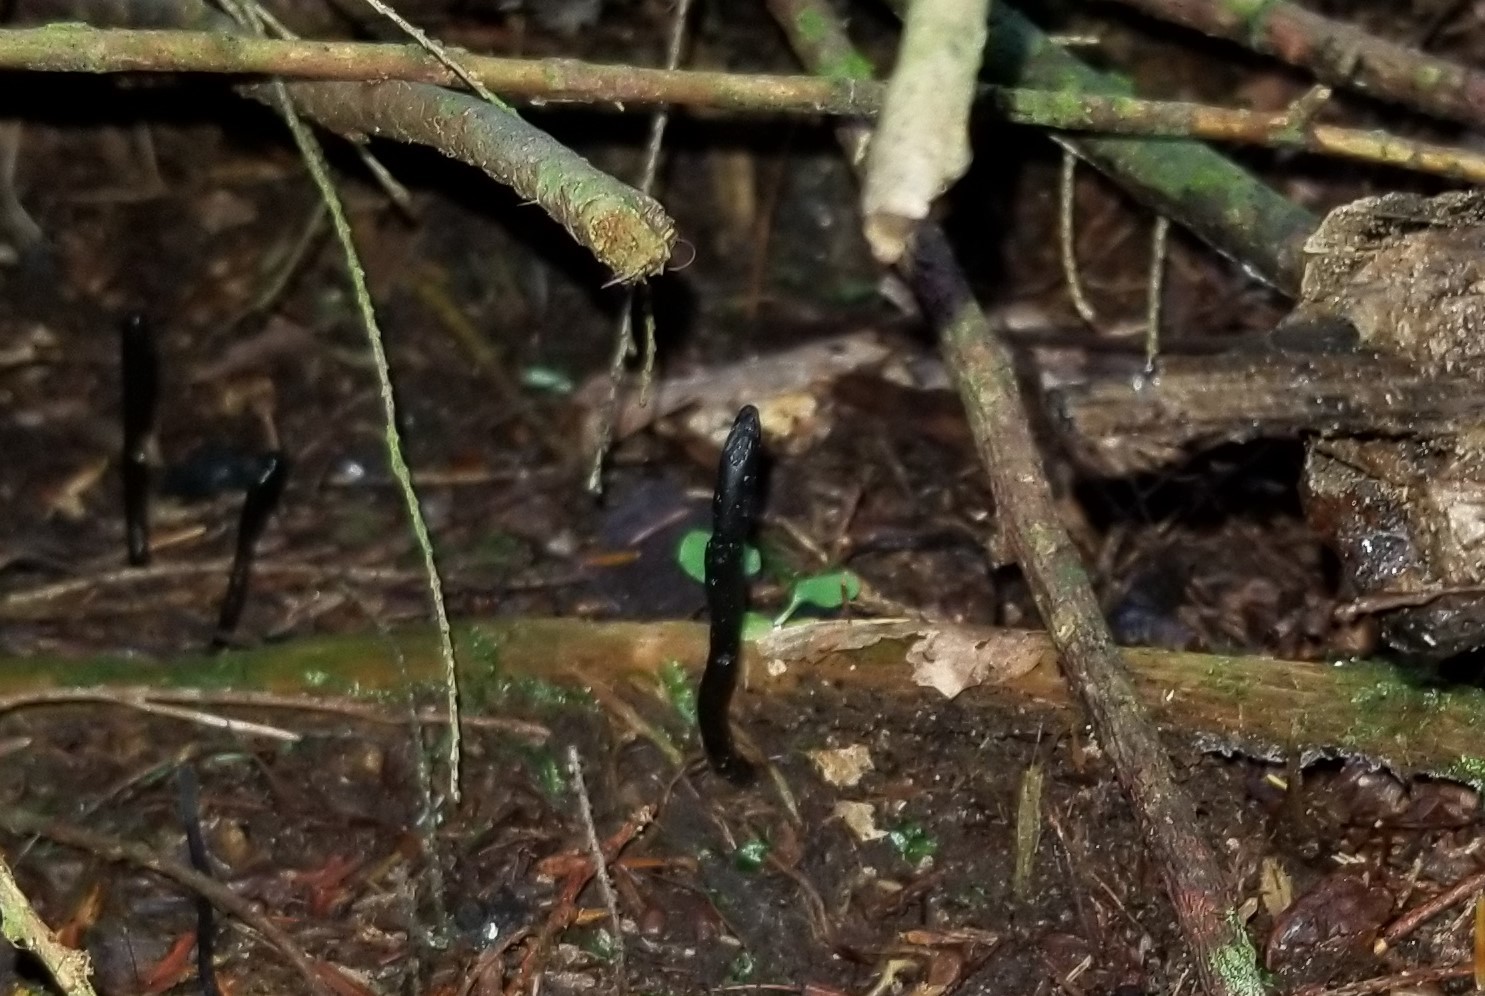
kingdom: Fungi
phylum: Ascomycota
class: Geoglossomycetes
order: Geoglossales
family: Geoglossaceae
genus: Geoglossum
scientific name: Geoglossum difforme
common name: Slimy earthtongue
